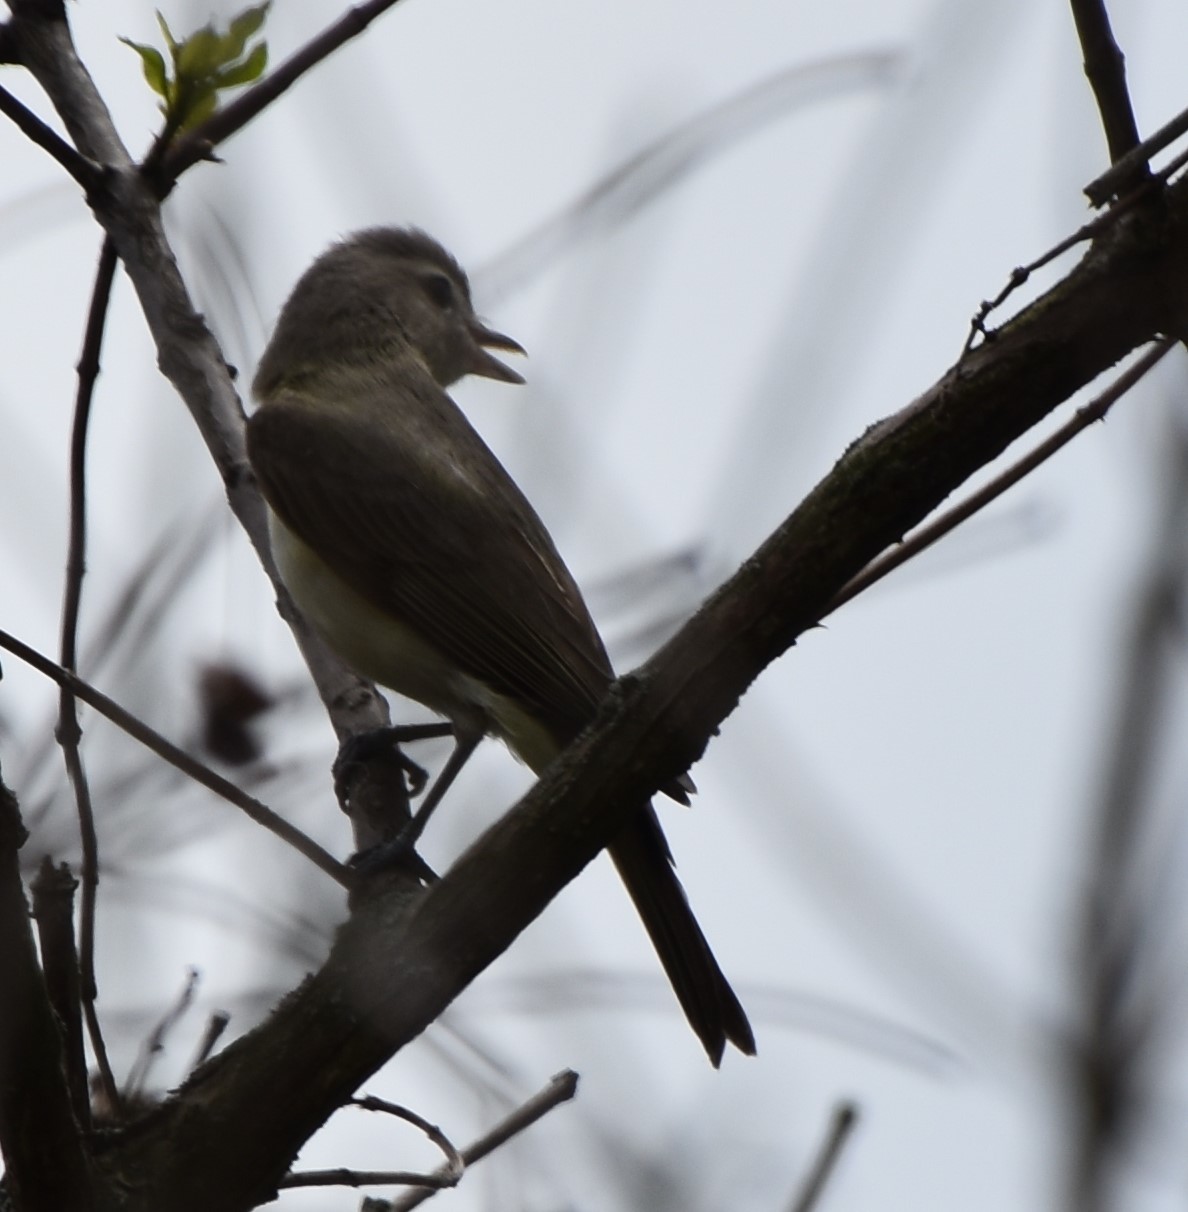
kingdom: Animalia
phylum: Chordata
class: Aves
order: Passeriformes
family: Vireonidae
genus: Vireo
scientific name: Vireo gilvus
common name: Warbling vireo
